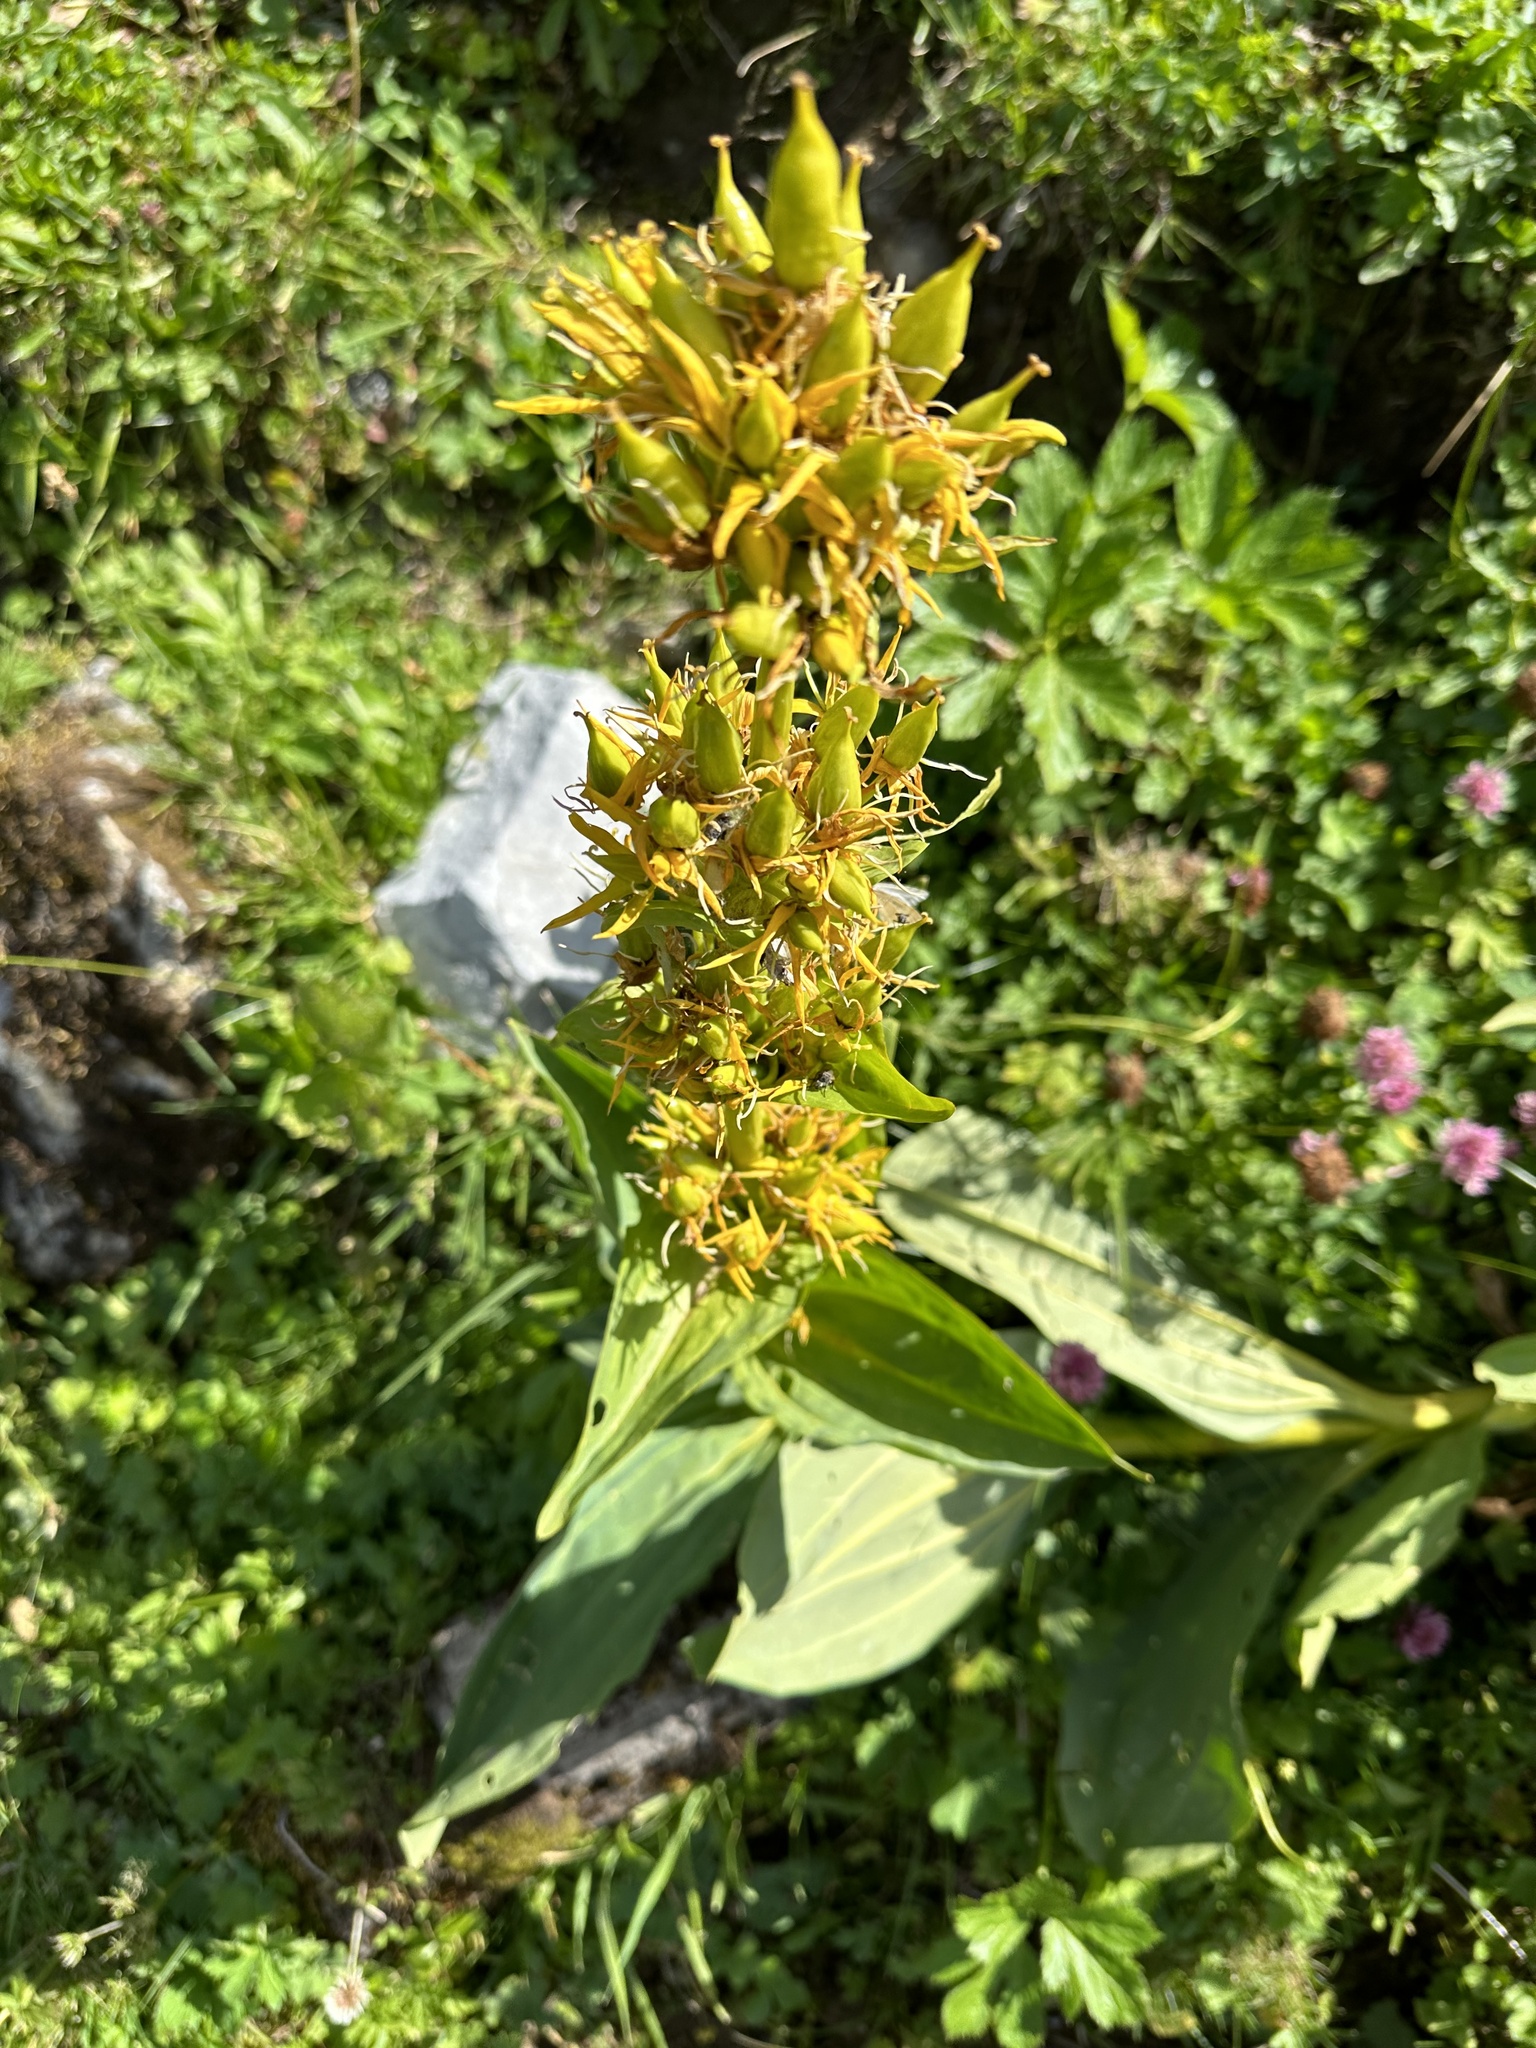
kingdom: Plantae
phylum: Tracheophyta
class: Magnoliopsida
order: Gentianales
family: Gentianaceae
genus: Gentiana
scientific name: Gentiana lutea
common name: Great yellow gentian
